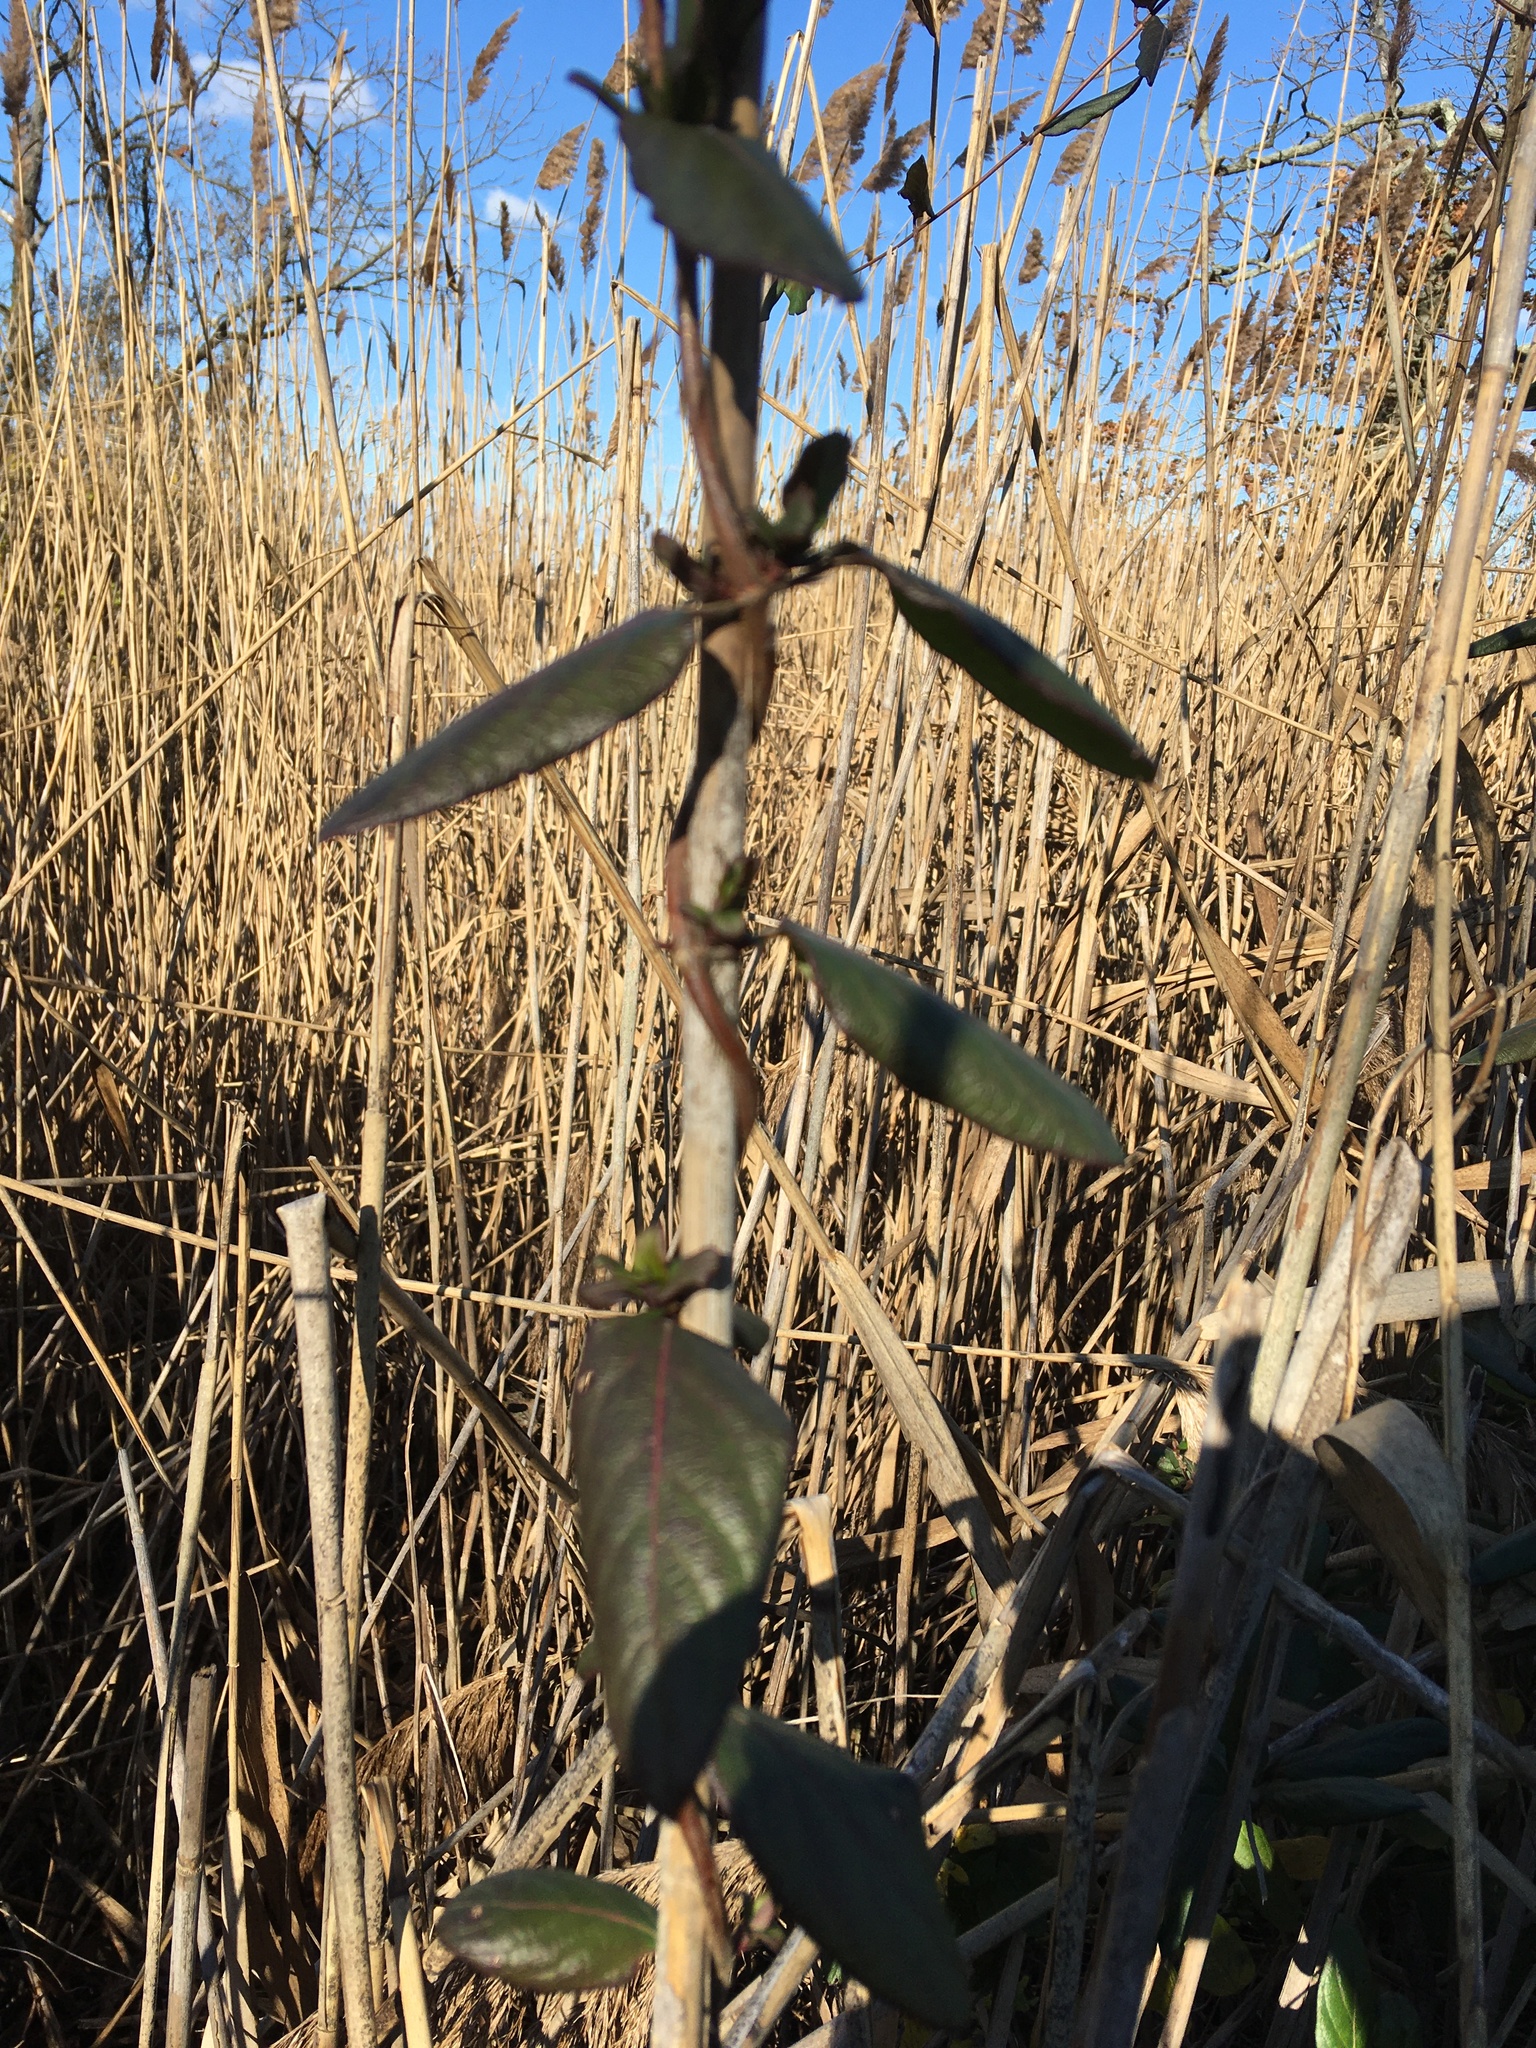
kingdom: Plantae
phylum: Tracheophyta
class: Magnoliopsida
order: Dipsacales
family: Caprifoliaceae
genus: Lonicera
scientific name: Lonicera japonica
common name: Japanese honeysuckle
